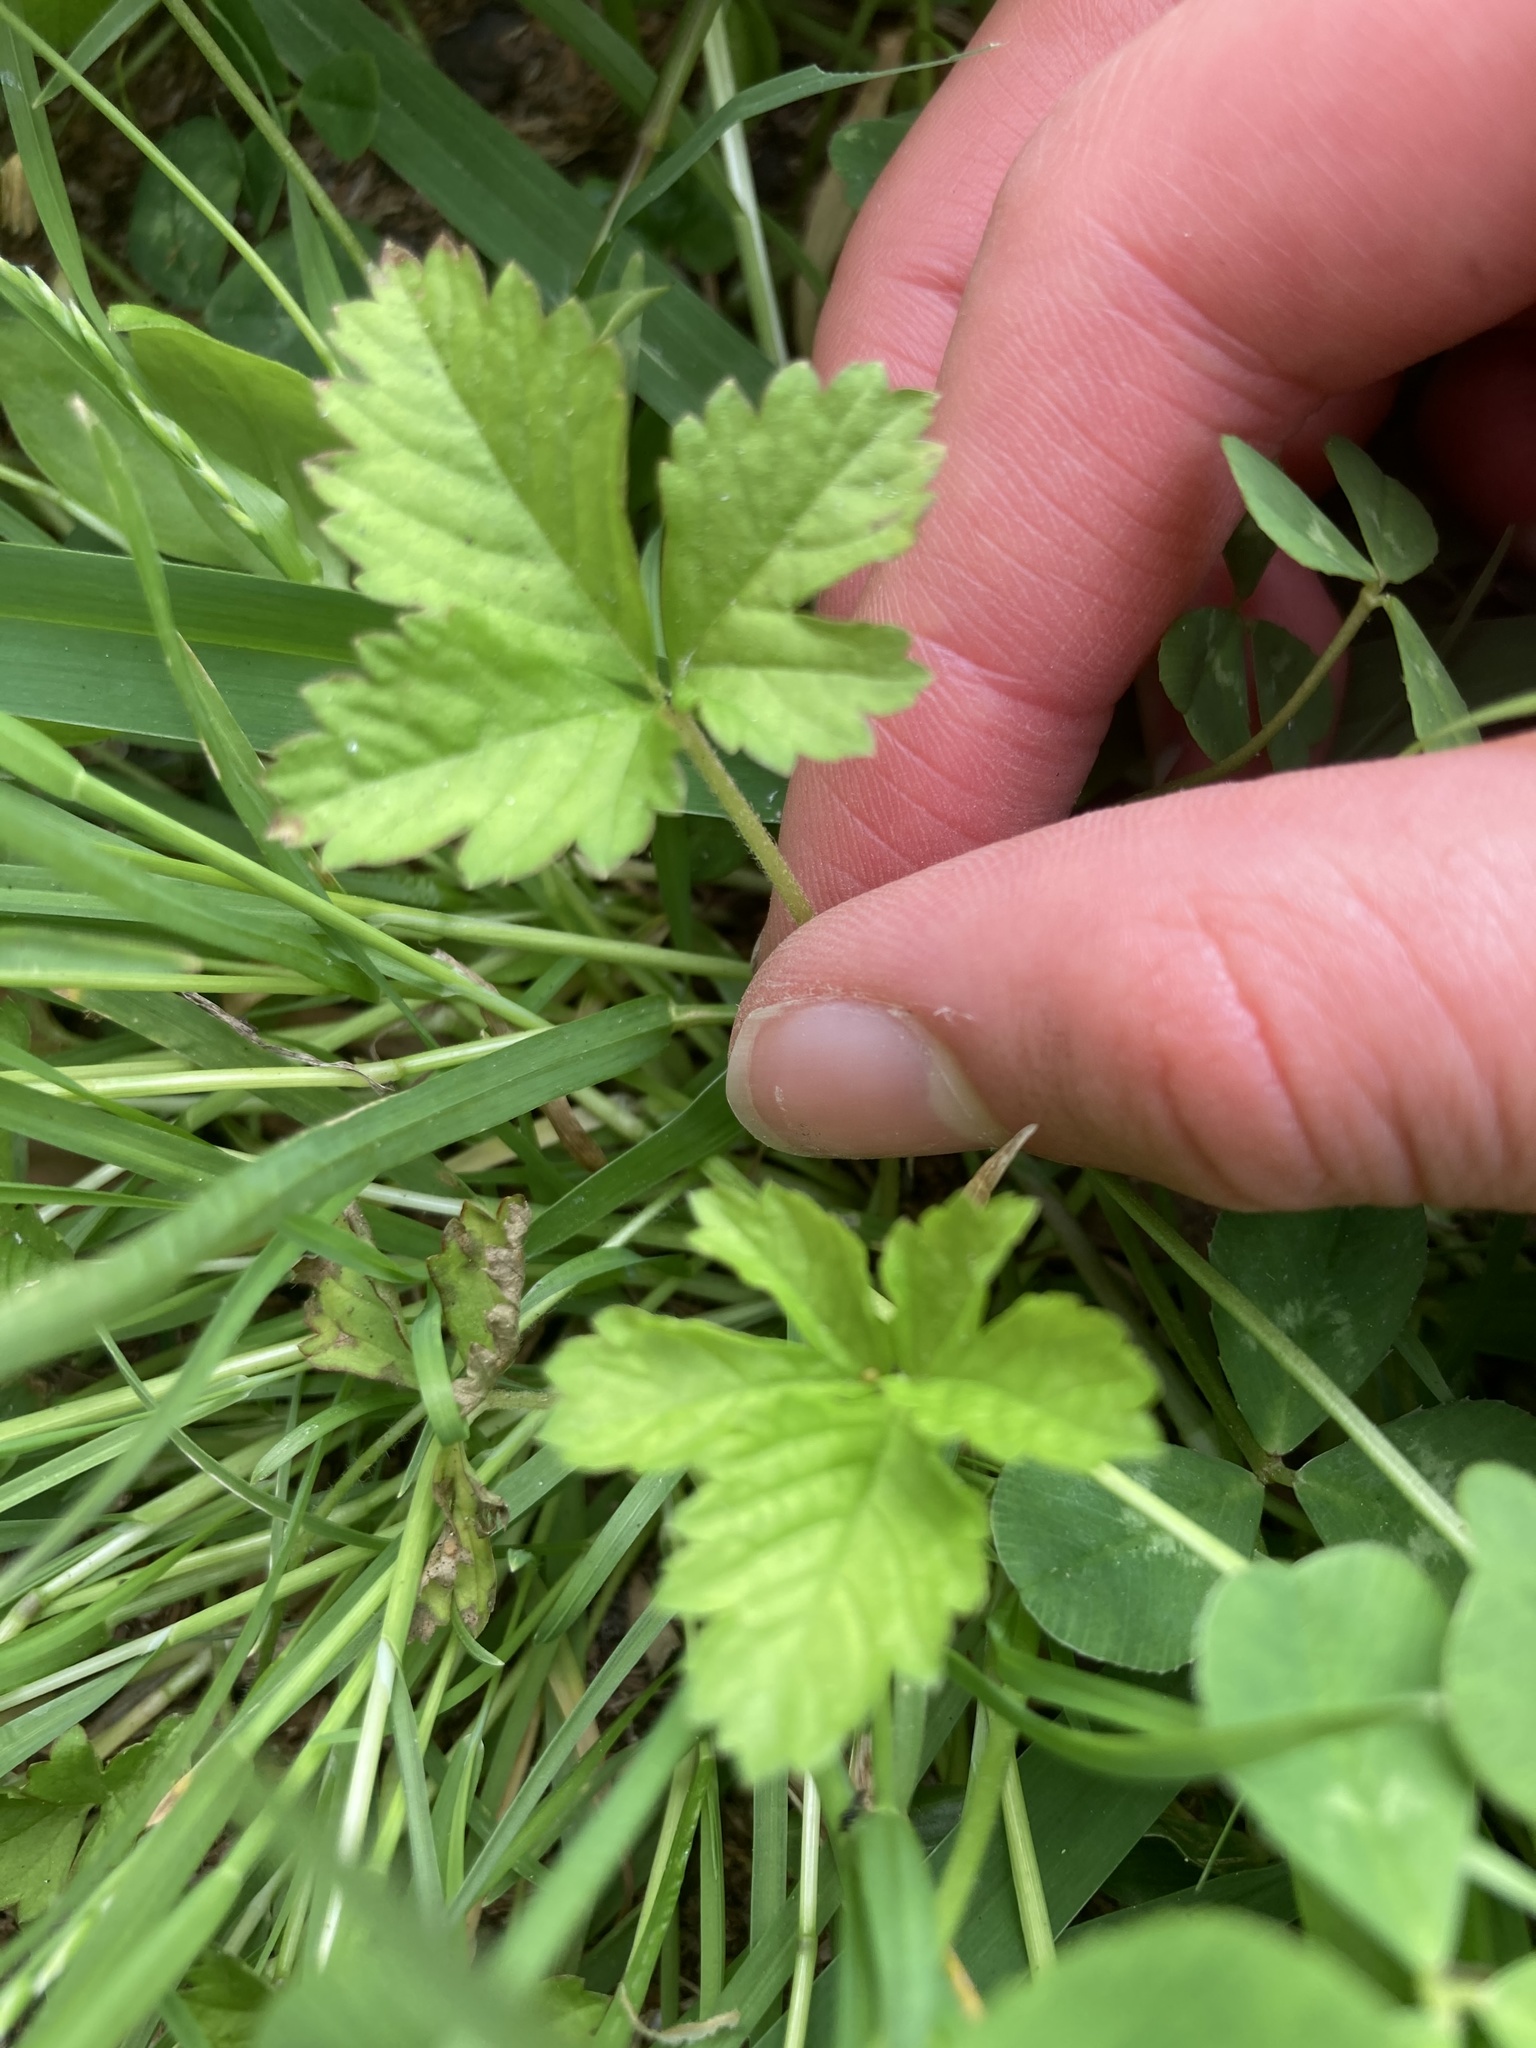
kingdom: Plantae
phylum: Tracheophyta
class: Magnoliopsida
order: Rosales
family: Rosaceae
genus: Potentilla
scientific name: Potentilla indica
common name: Yellow-flowered strawberry
